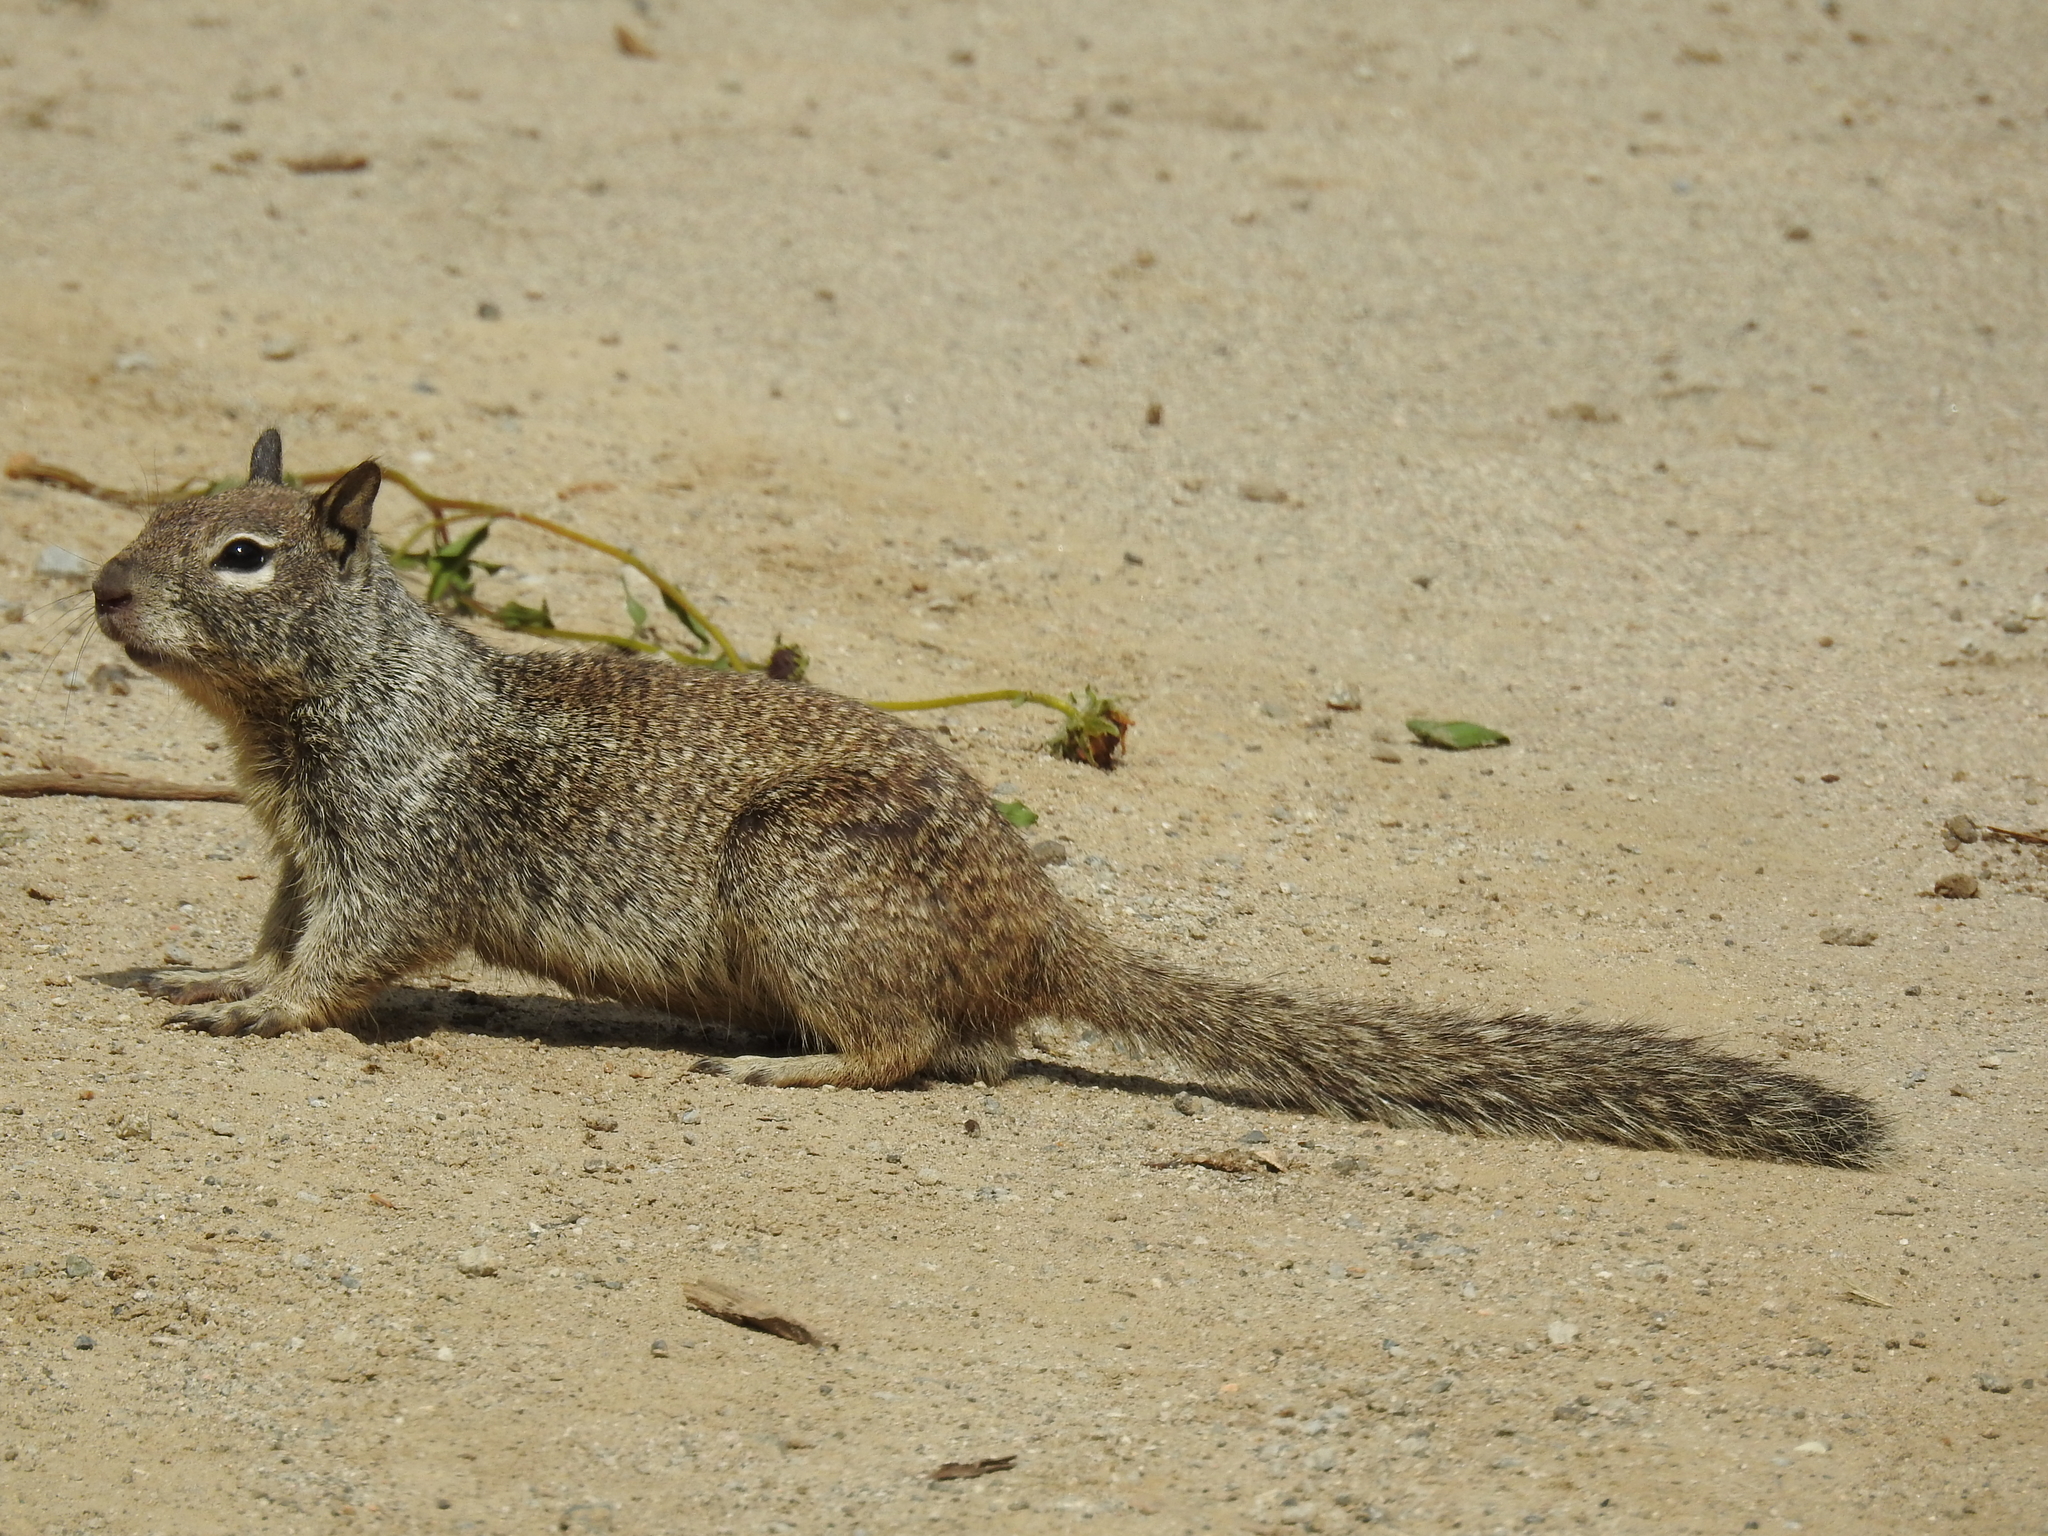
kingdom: Animalia
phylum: Chordata
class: Mammalia
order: Rodentia
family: Sciuridae
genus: Otospermophilus
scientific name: Otospermophilus beecheyi
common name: California ground squirrel
